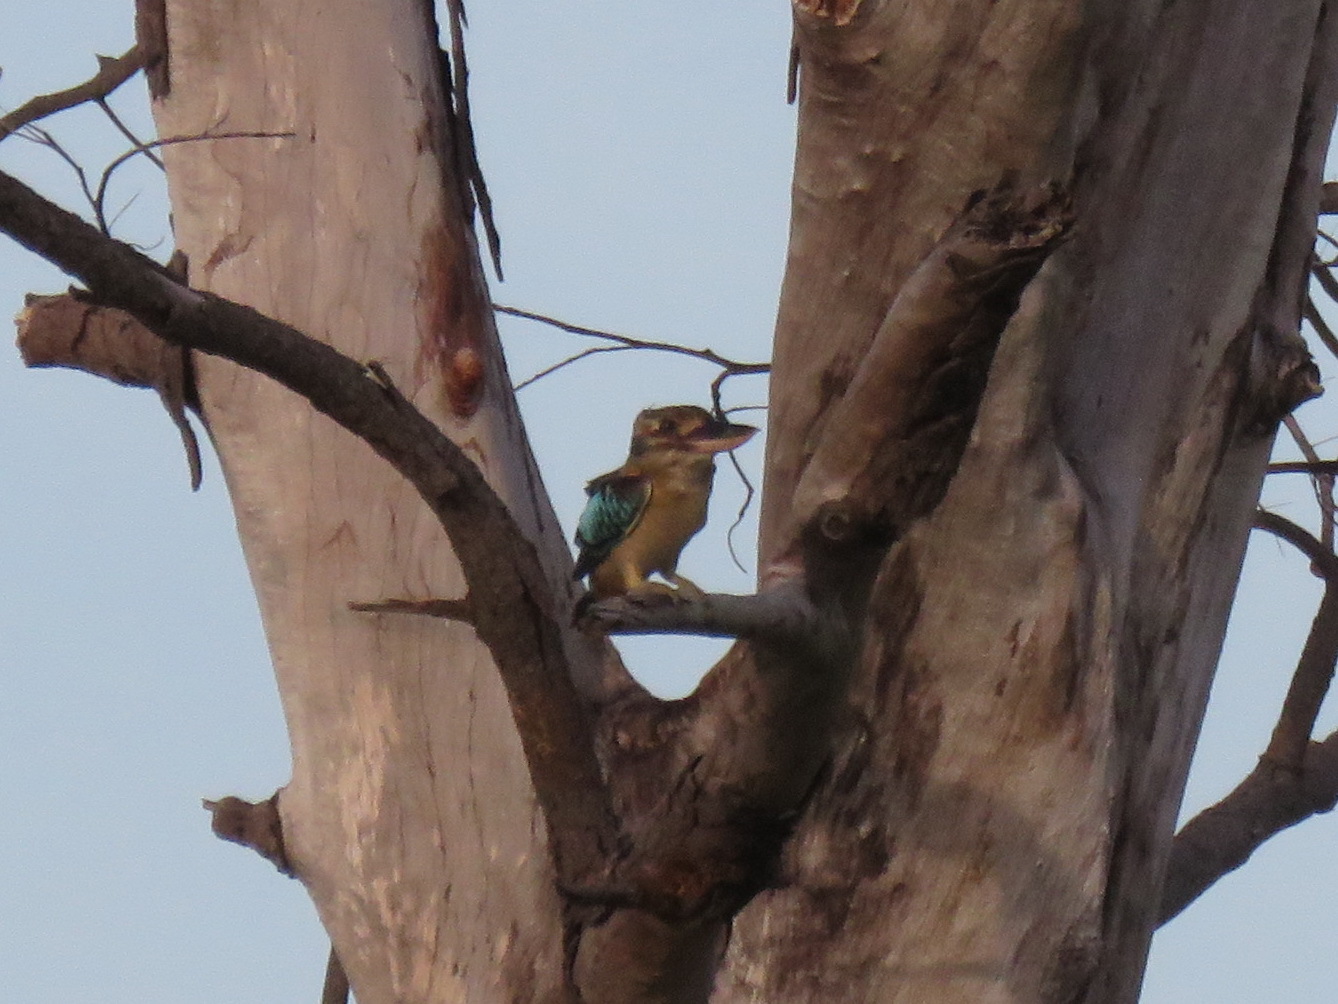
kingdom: Animalia
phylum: Chordata
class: Aves
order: Coraciiformes
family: Alcedinidae
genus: Dacelo
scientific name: Dacelo leachii
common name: Blue-winged kookaburra
